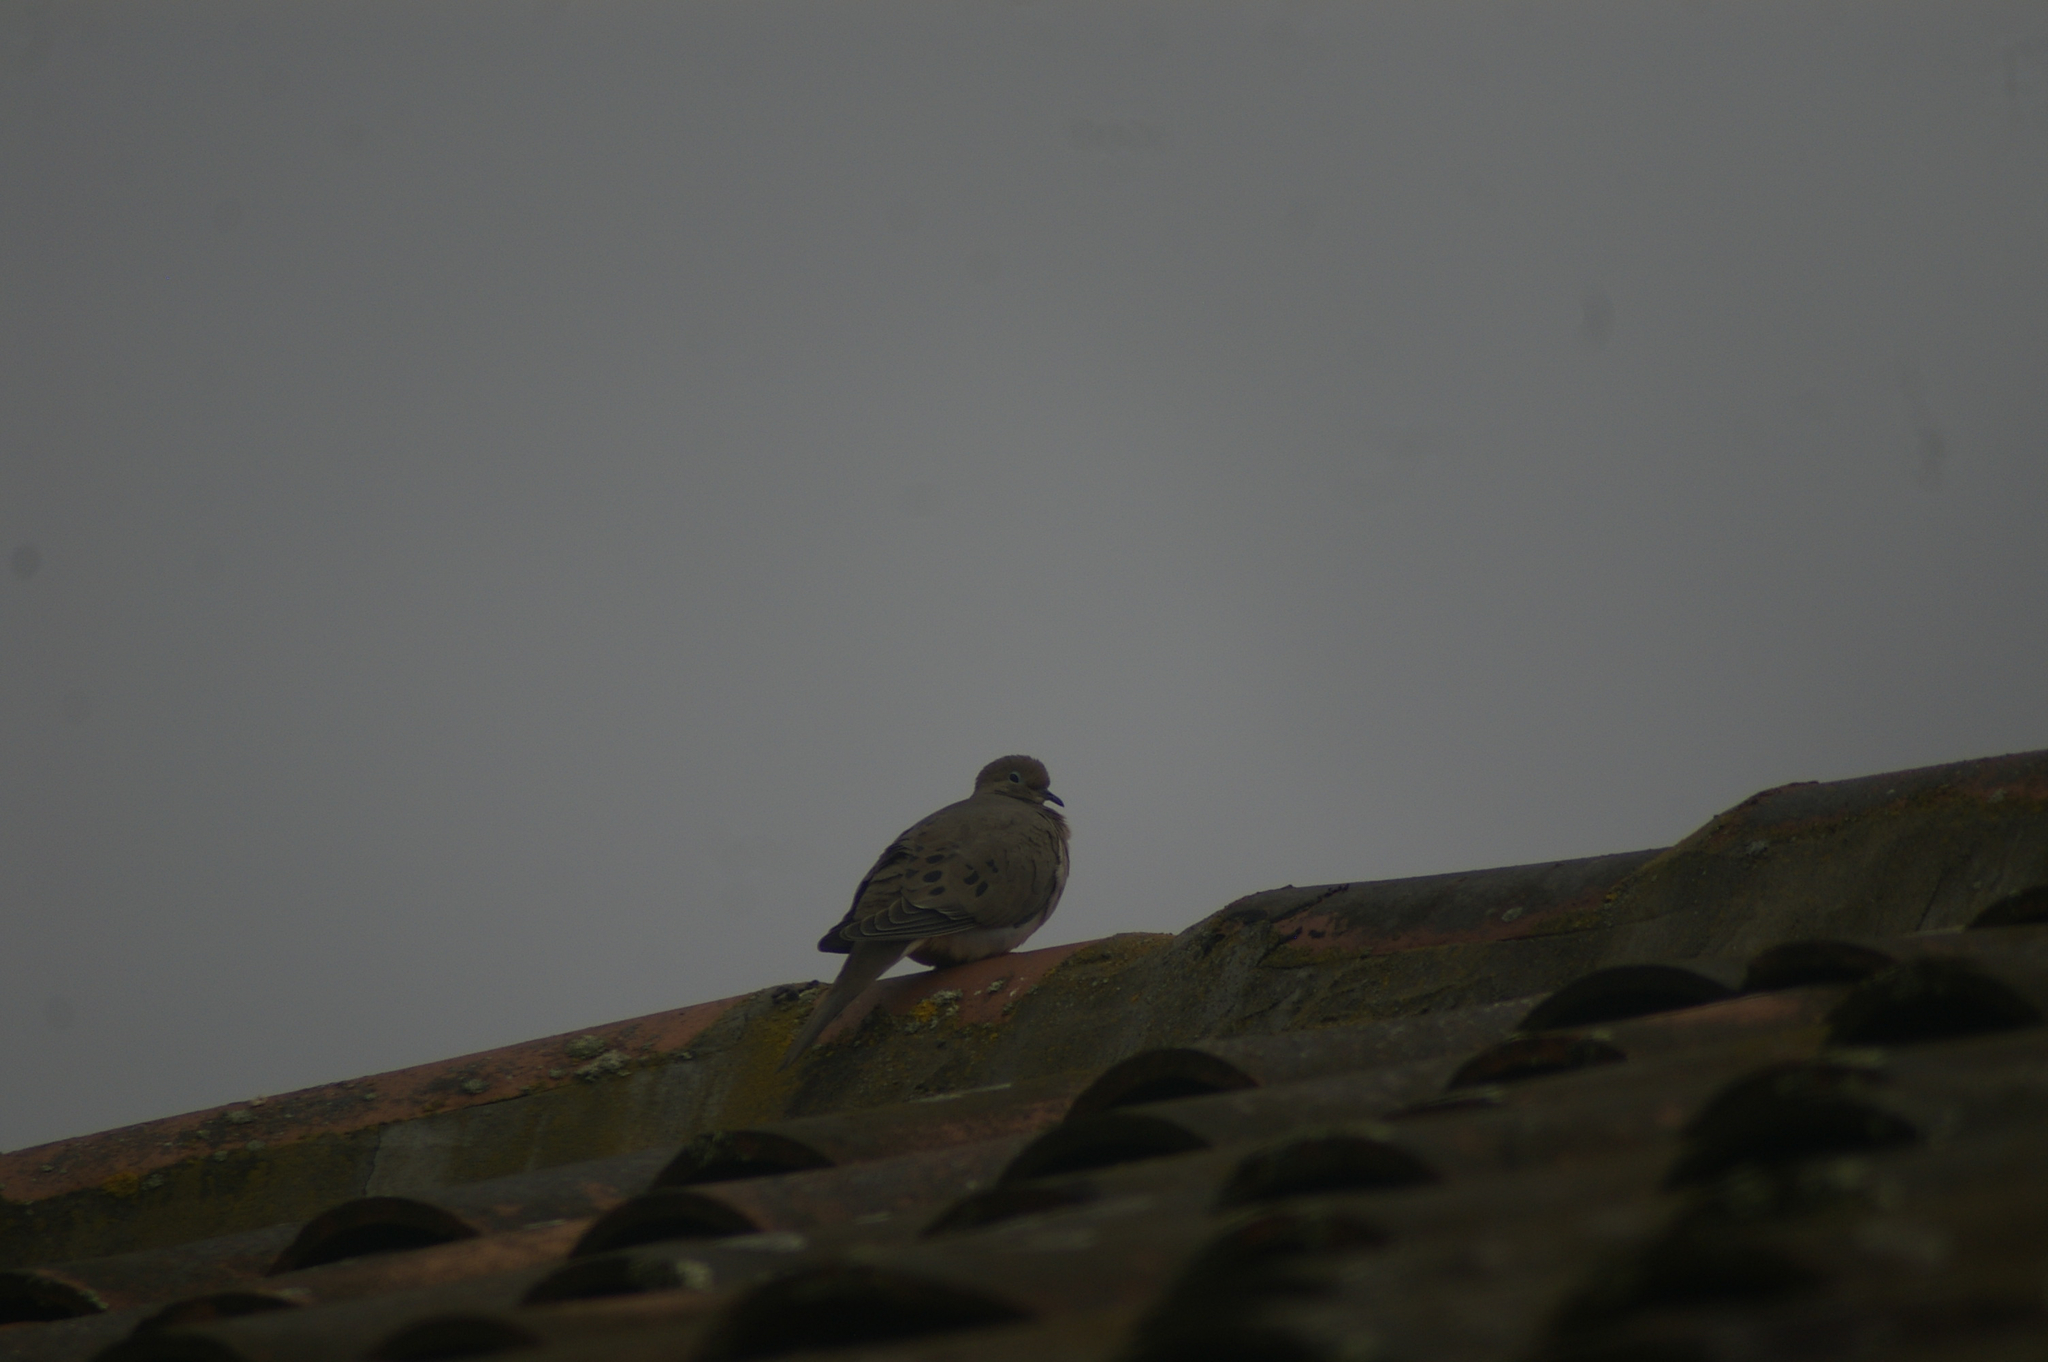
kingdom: Animalia
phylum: Chordata
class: Aves
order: Columbiformes
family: Columbidae
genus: Zenaida
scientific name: Zenaida macroura
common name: Mourning dove
